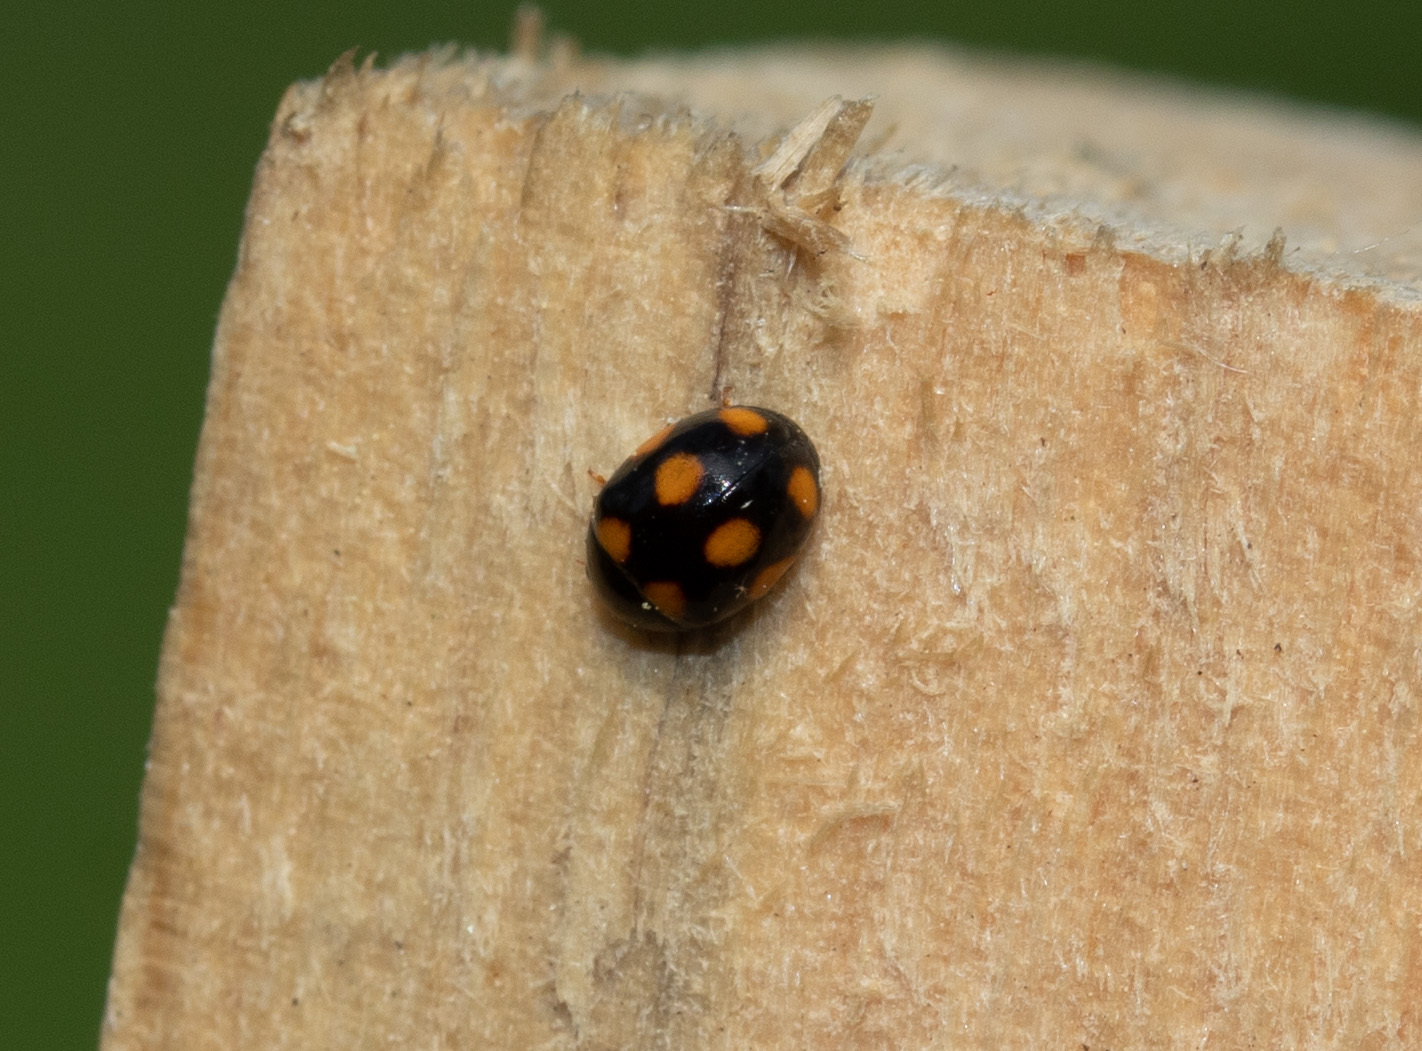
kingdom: Animalia
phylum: Arthropoda
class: Insecta
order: Coleoptera
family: Coccinellidae
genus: Brachiacantha
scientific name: Brachiacantha ursina
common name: Ursine spurleg lady beetle
